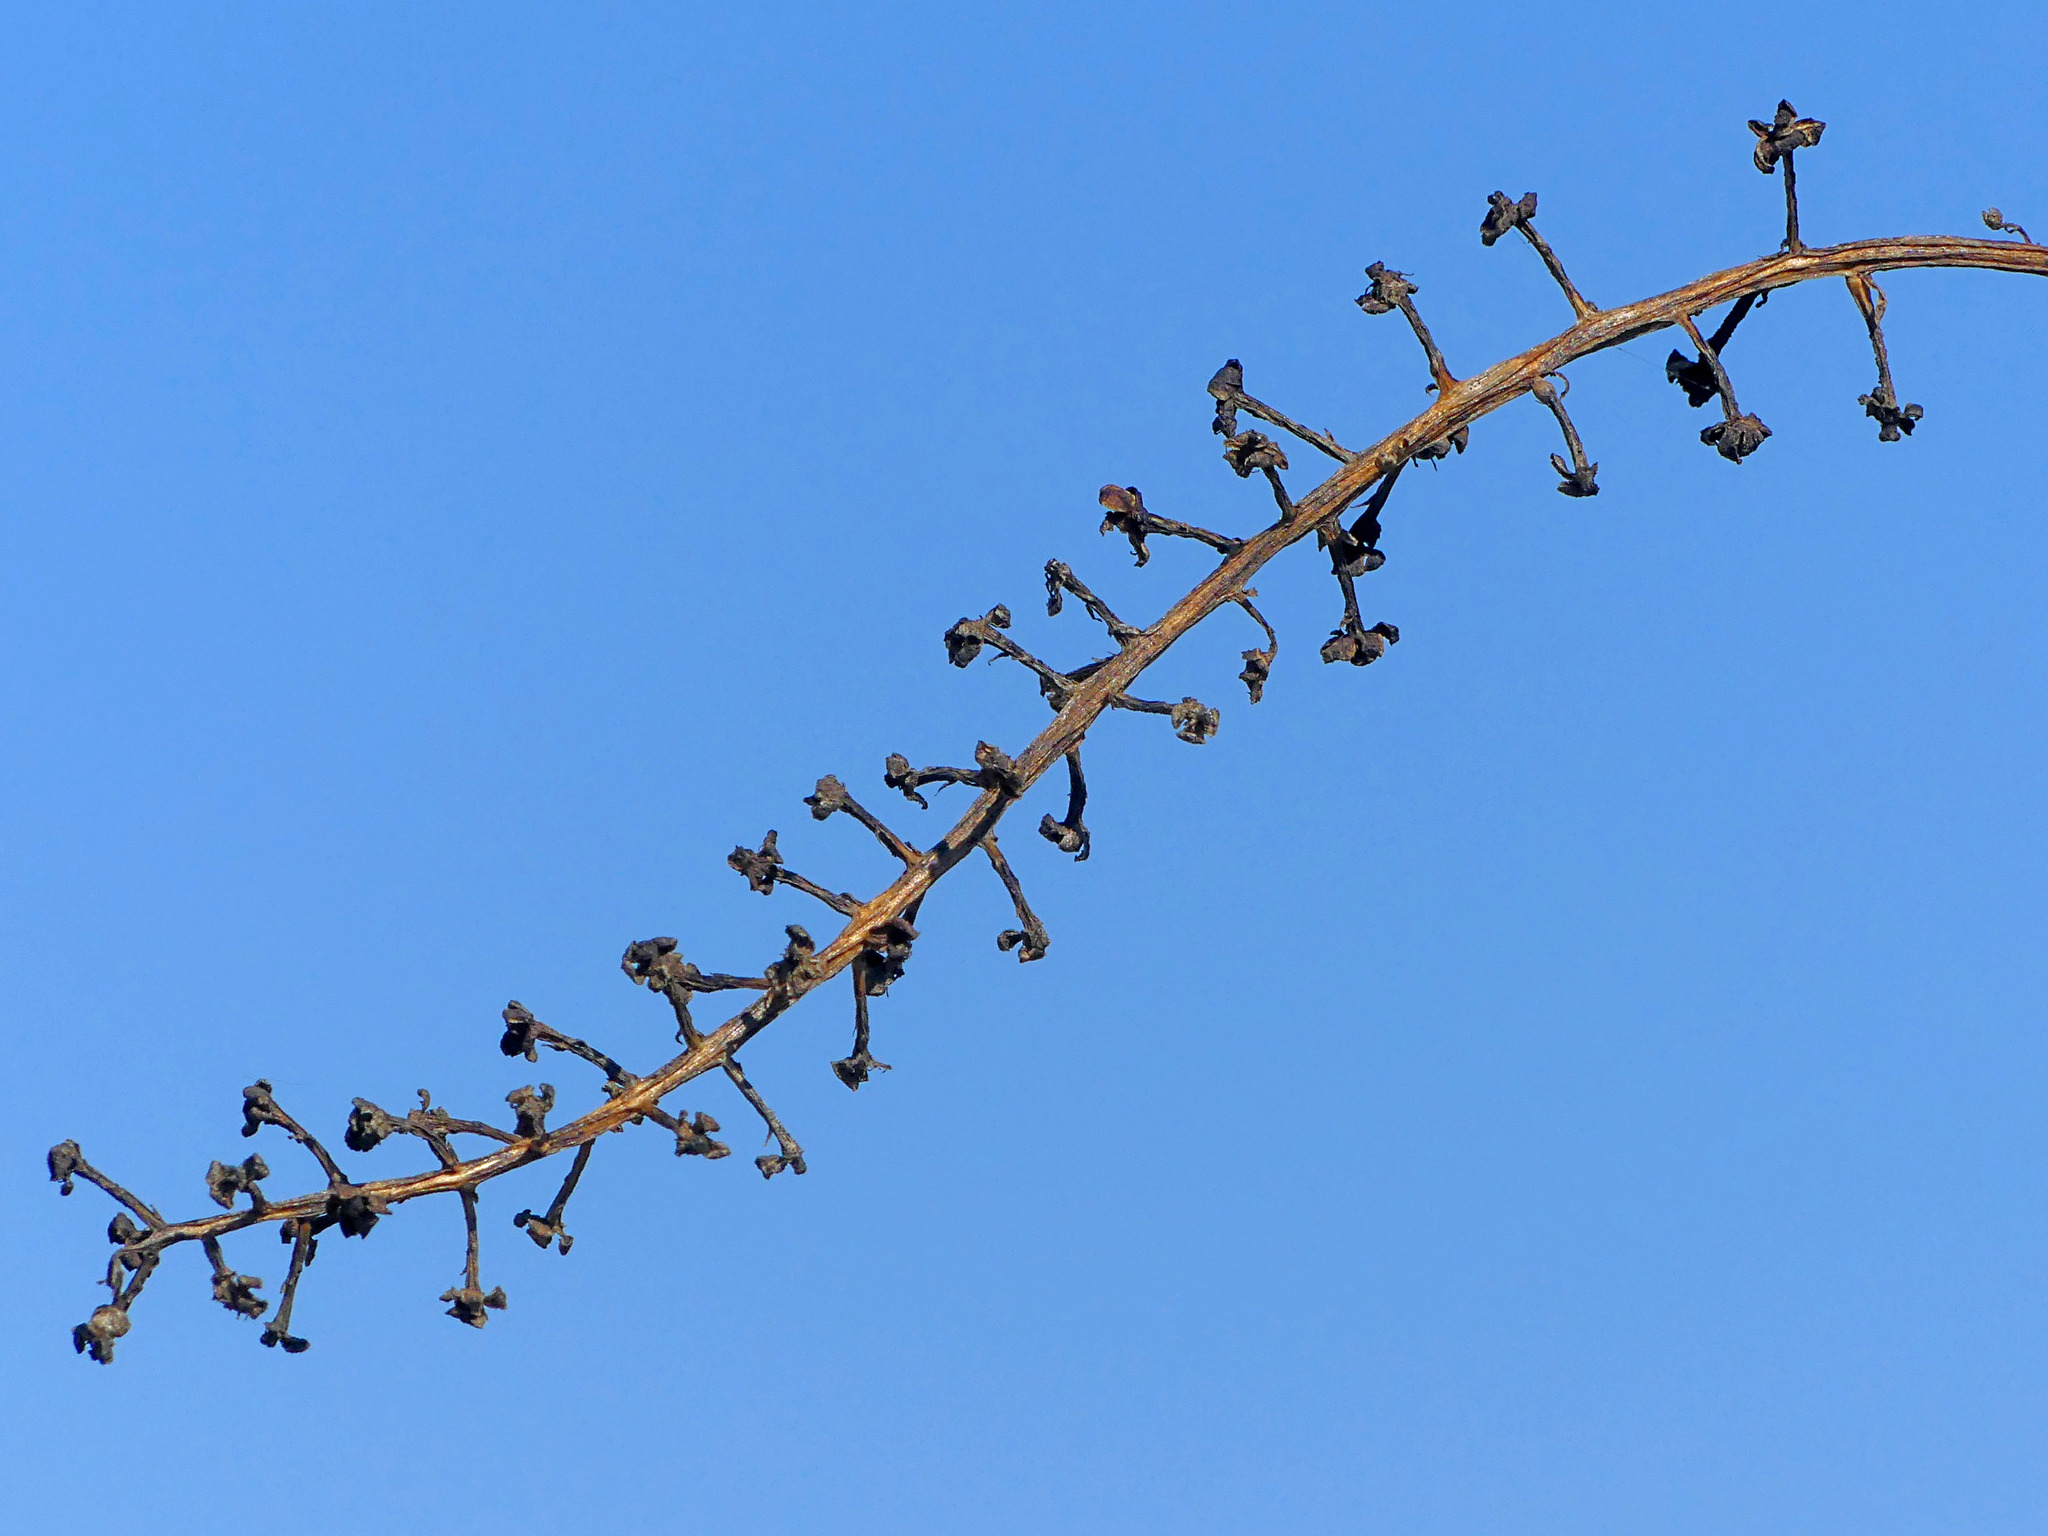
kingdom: Plantae
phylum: Tracheophyta
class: Magnoliopsida
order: Caryophyllales
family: Phytolaccaceae
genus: Phytolacca
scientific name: Phytolacca americana
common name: American pokeweed
